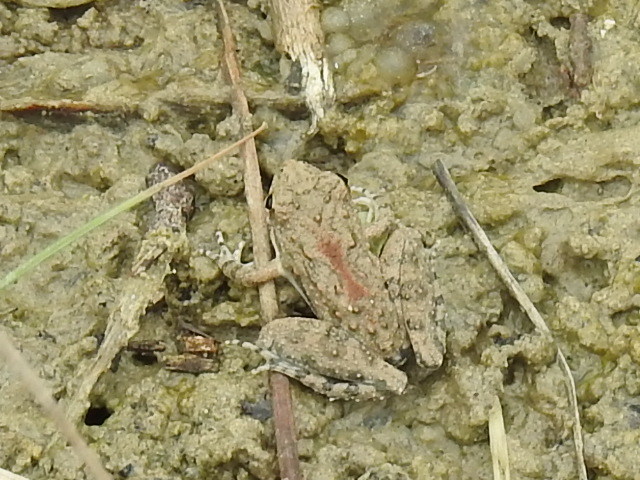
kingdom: Animalia
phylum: Chordata
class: Amphibia
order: Anura
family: Hylidae
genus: Acris
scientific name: Acris blanchardi
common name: Blanchard's cricket frog
